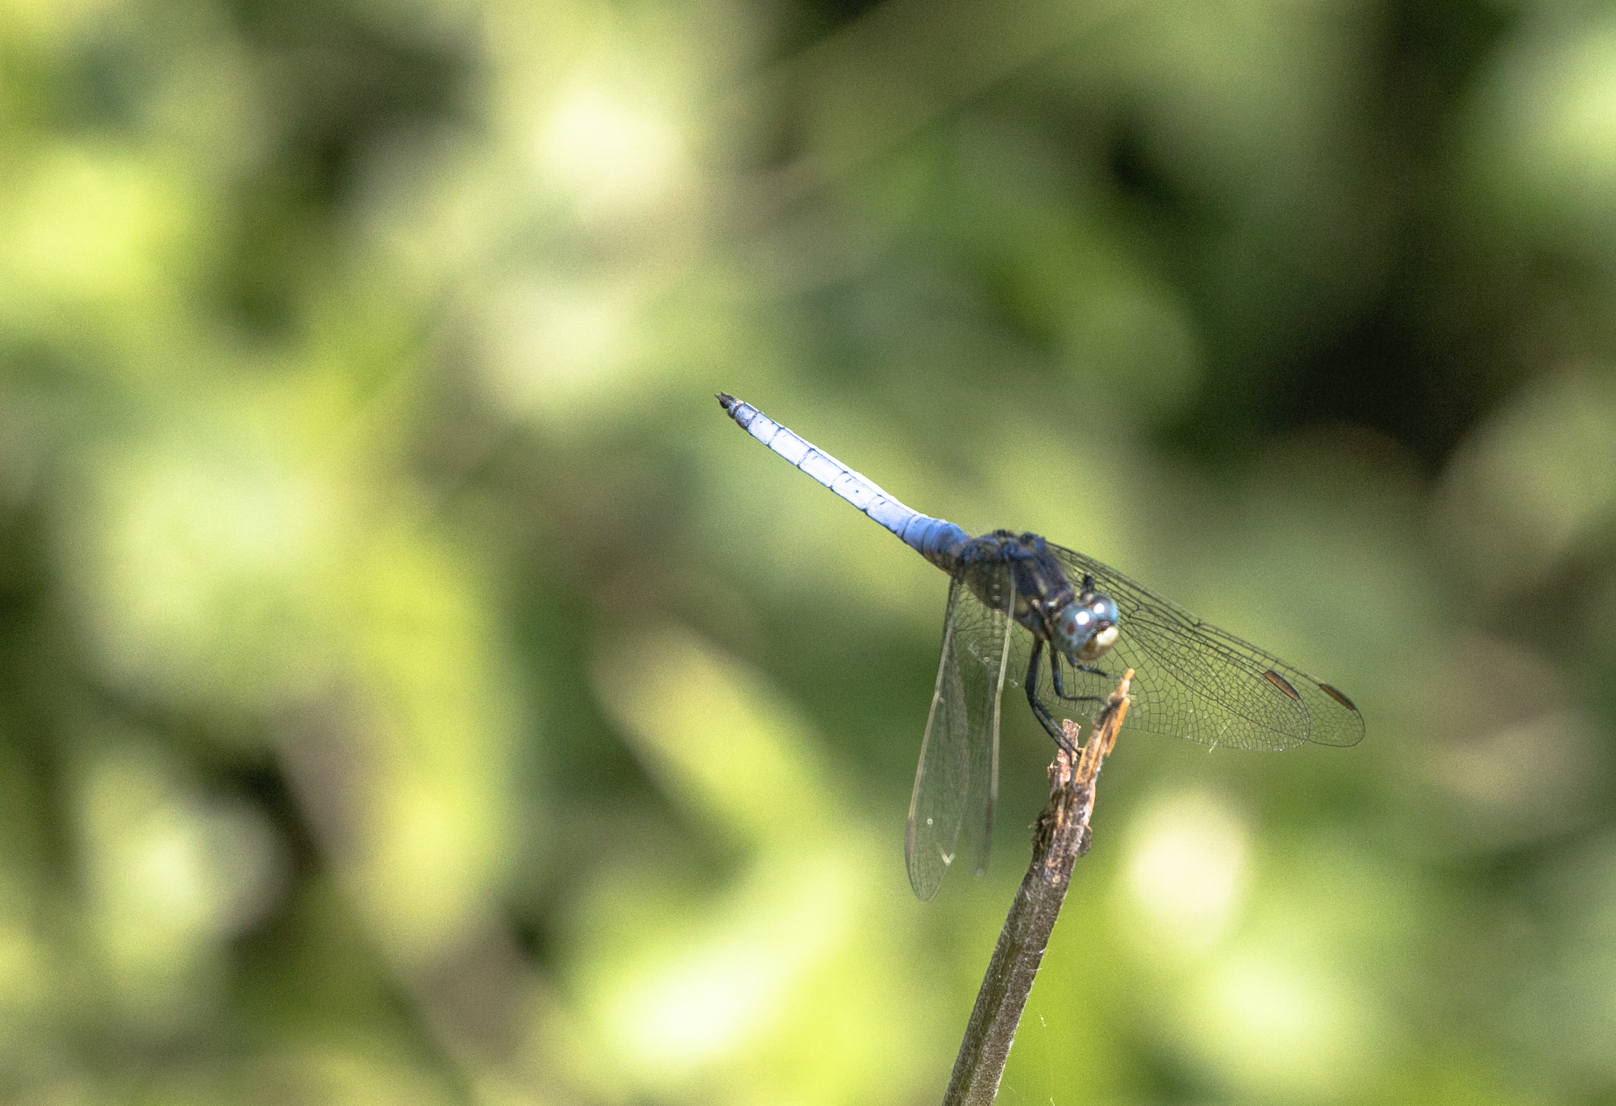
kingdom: Animalia
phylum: Arthropoda
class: Insecta
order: Odonata
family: Libellulidae
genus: Orthetrum
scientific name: Orthetrum coerulescens
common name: Keeled skimmer
